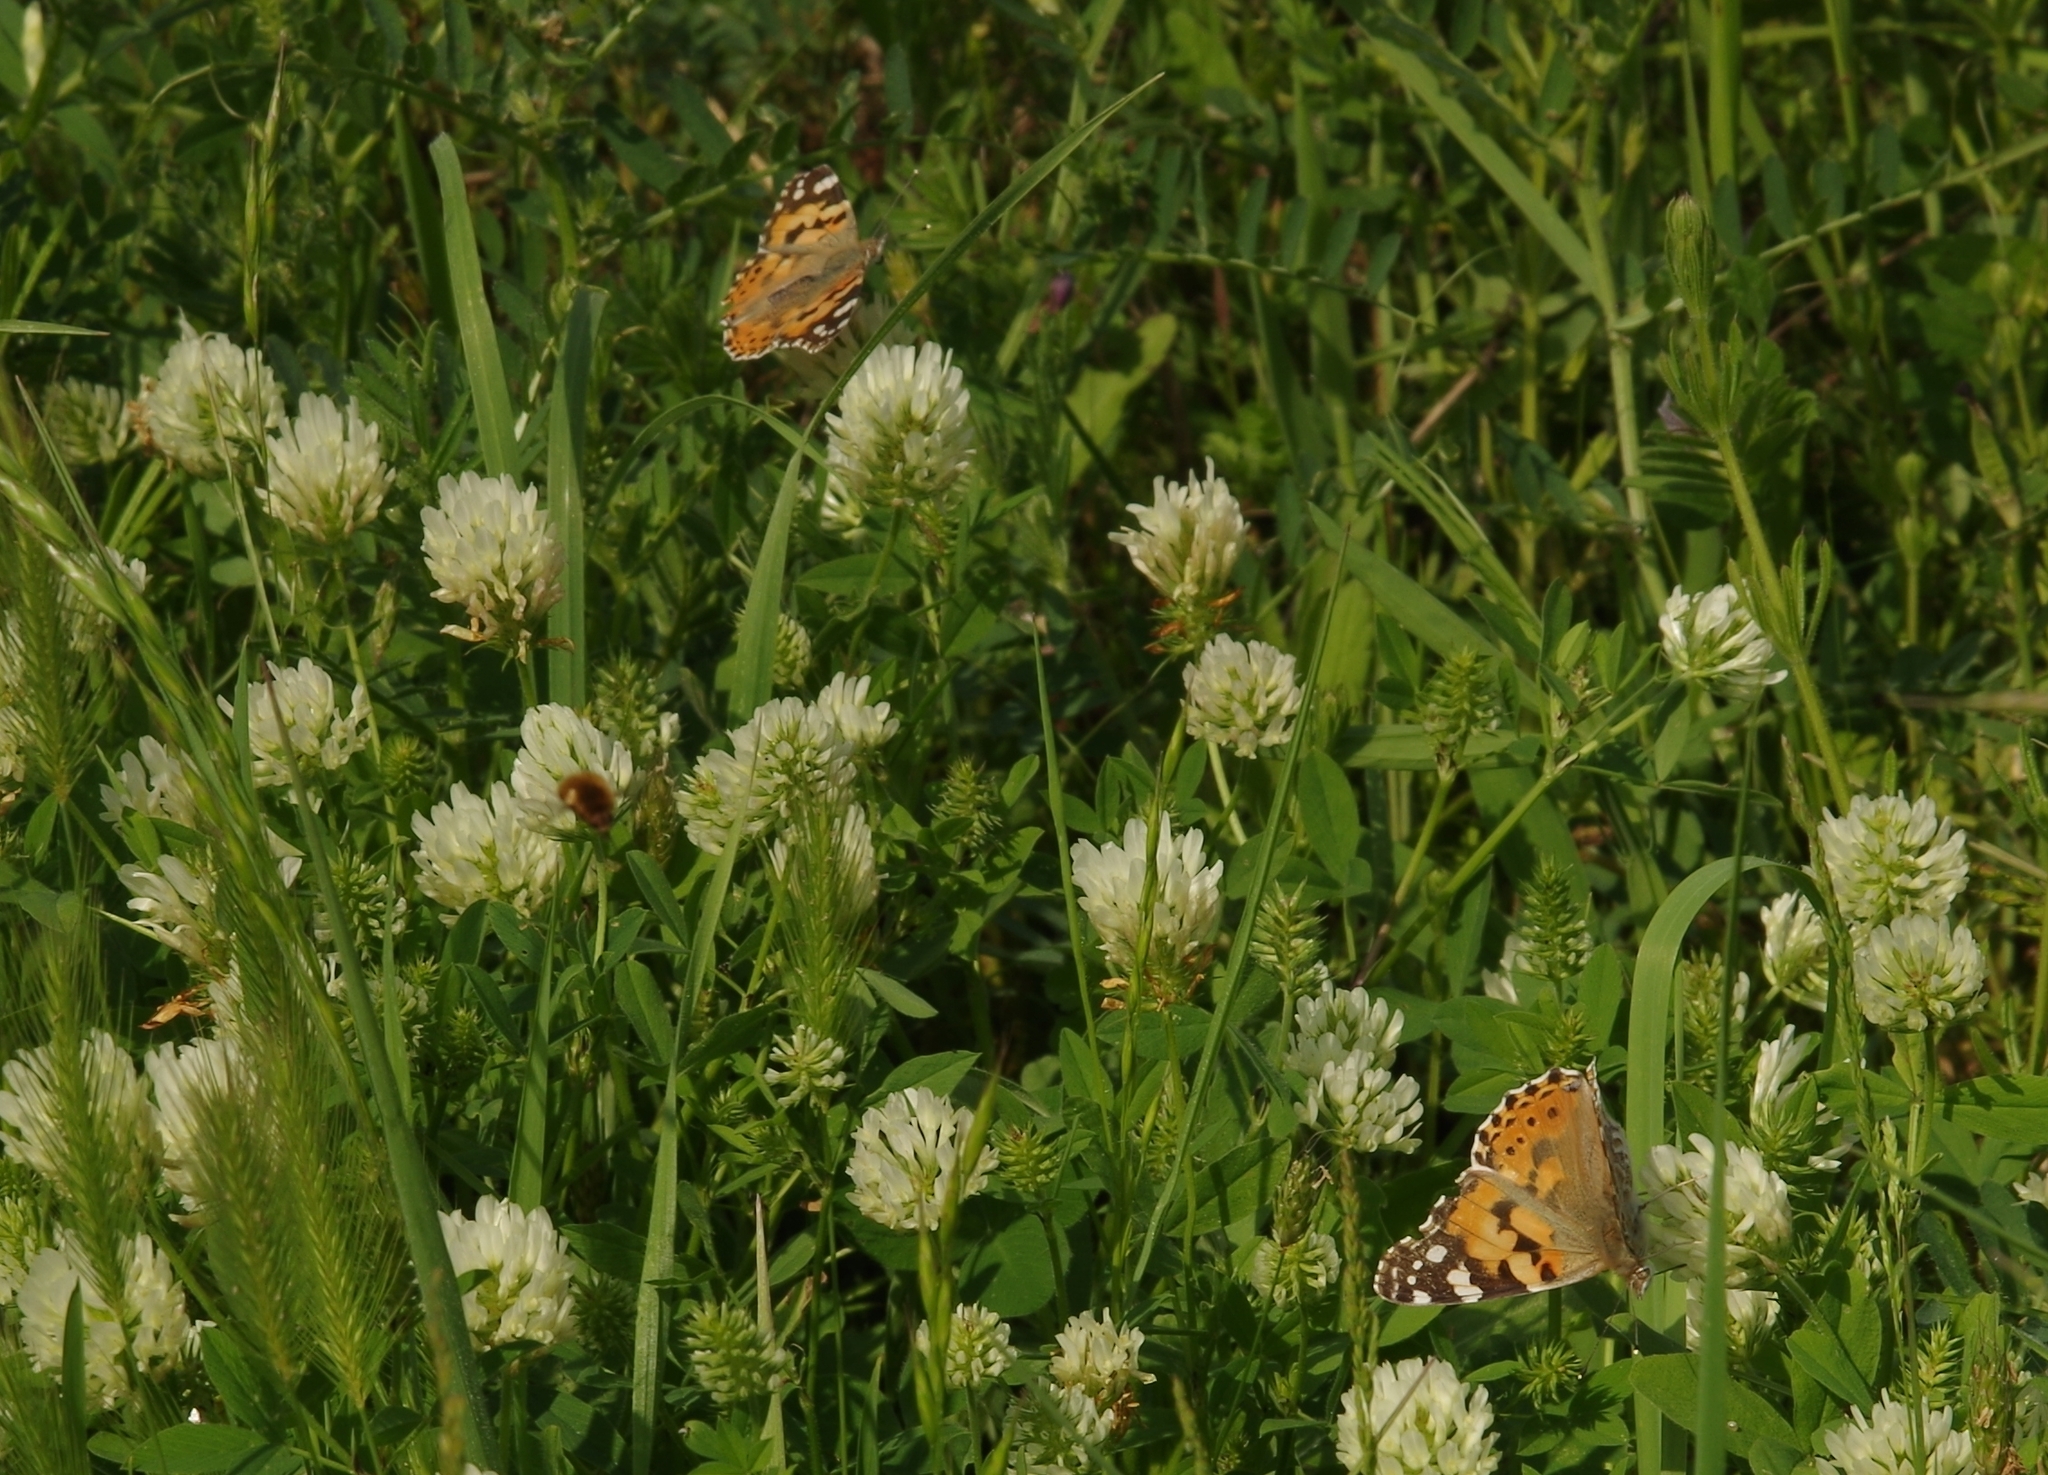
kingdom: Animalia
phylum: Arthropoda
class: Insecta
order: Lepidoptera
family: Nymphalidae
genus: Vanessa
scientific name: Vanessa cardui
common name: Painted lady
